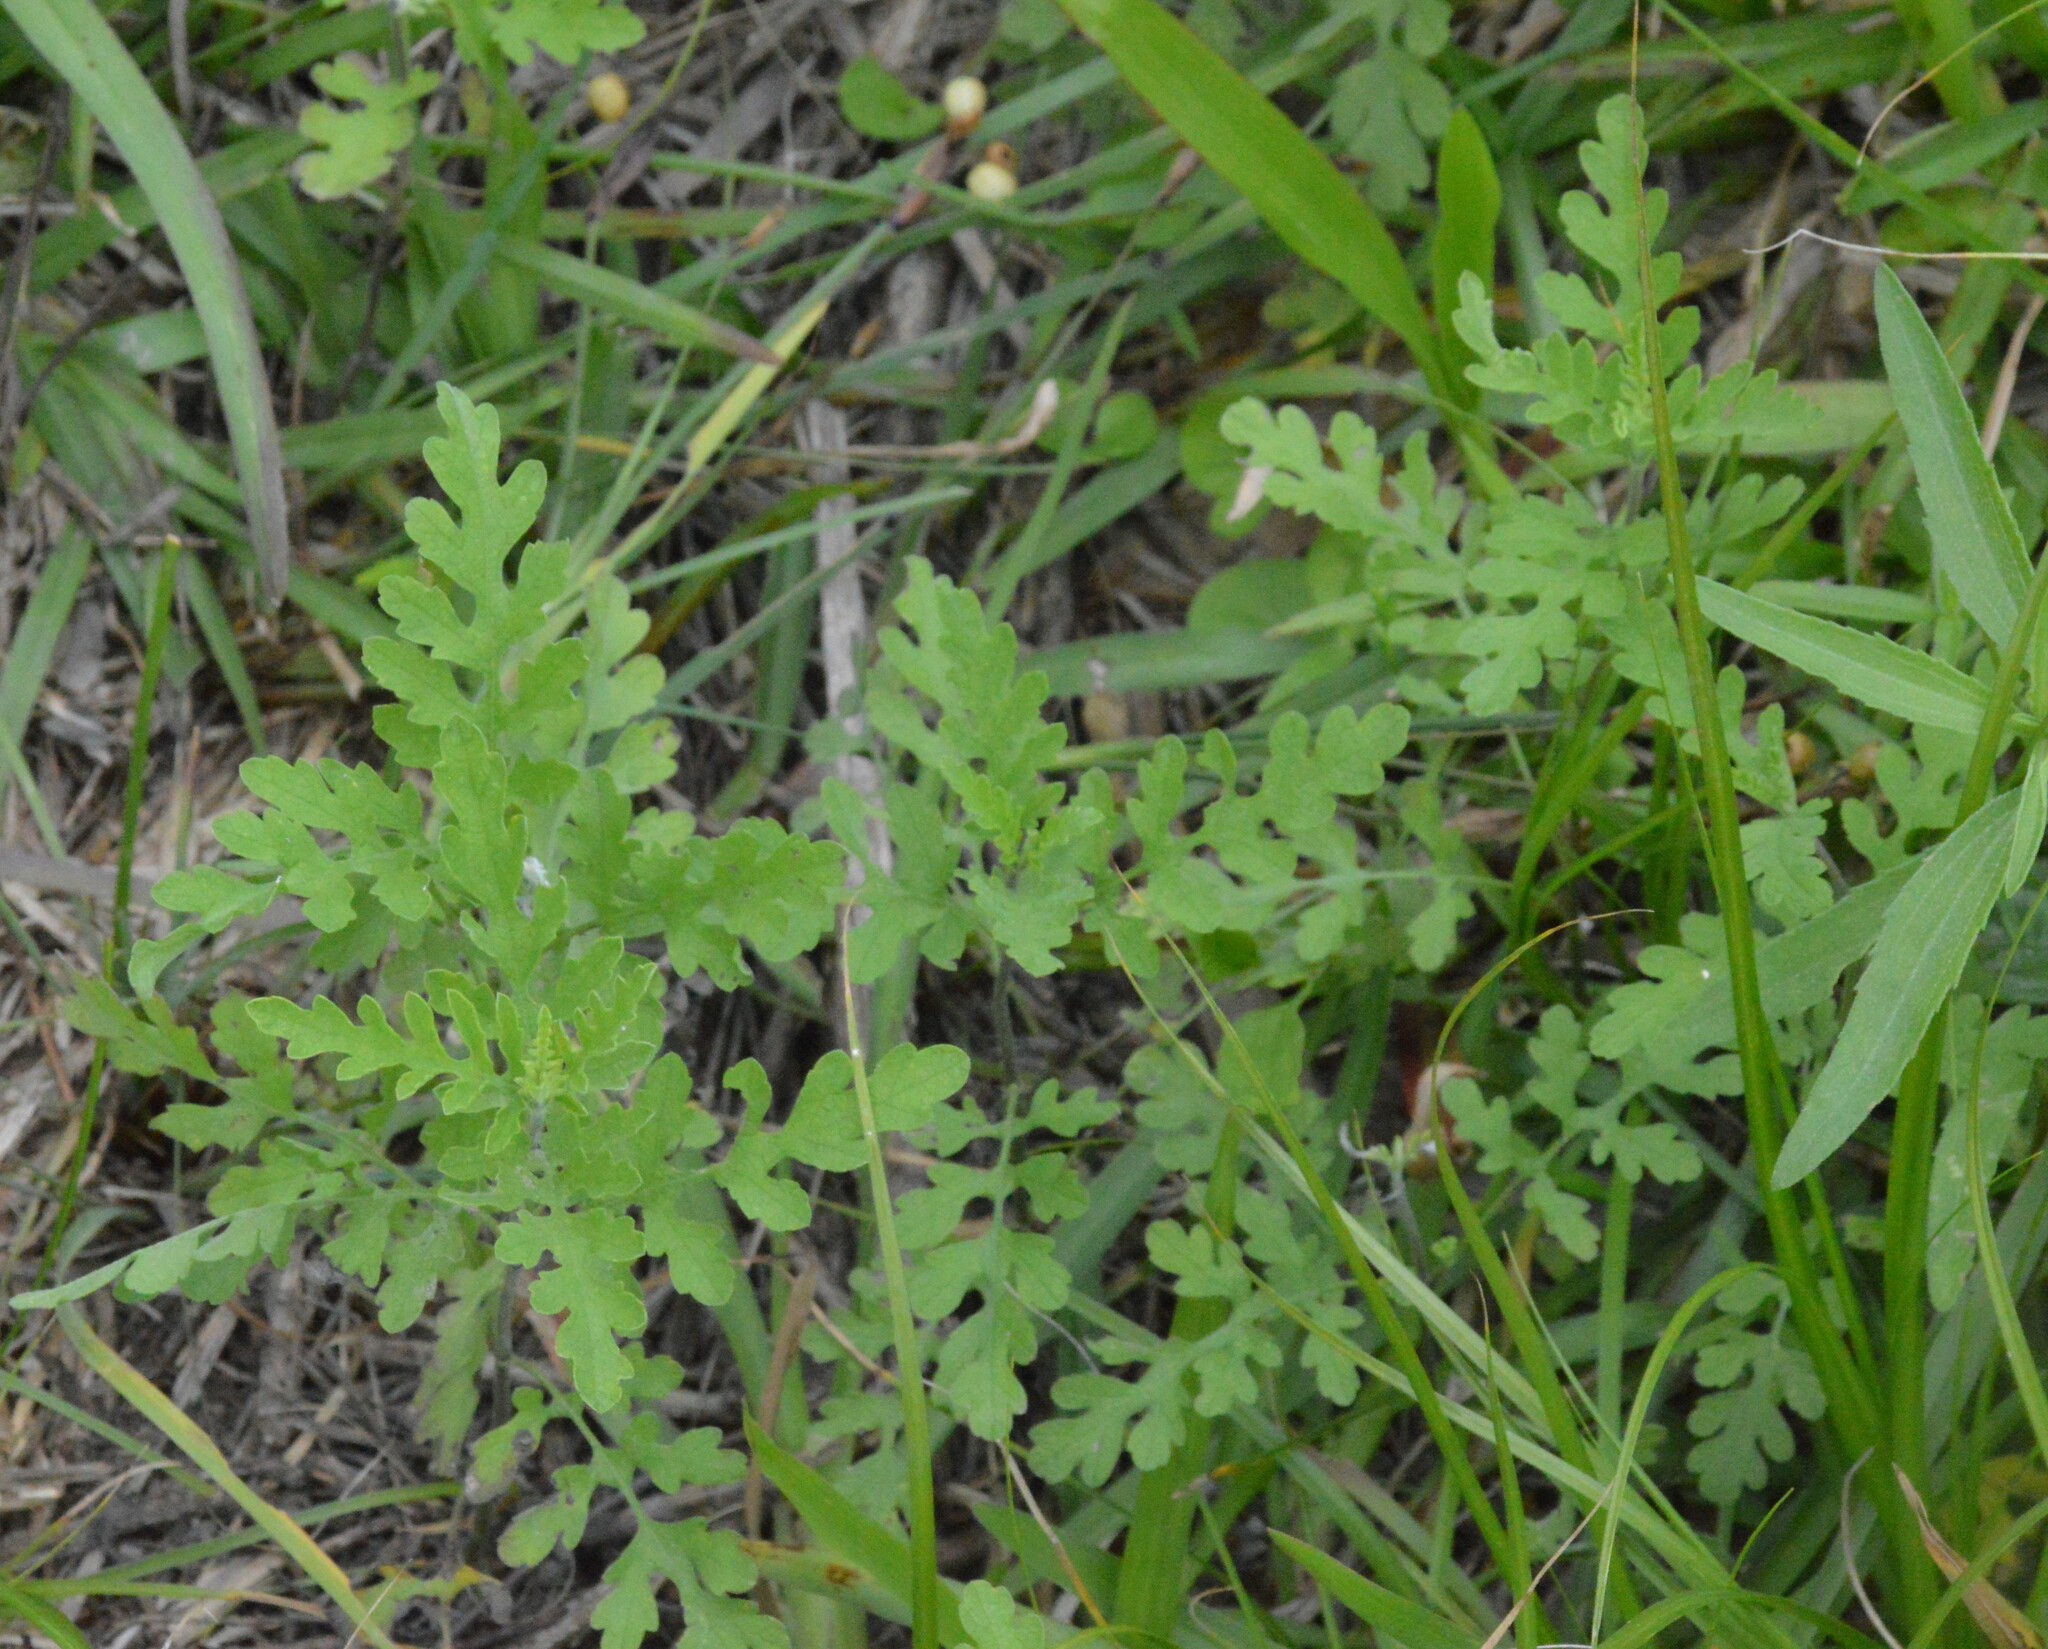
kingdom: Plantae
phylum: Tracheophyta
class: Magnoliopsida
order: Asterales
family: Asteraceae
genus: Ambrosia
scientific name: Ambrosia psilostachya
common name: Perennial ragweed
